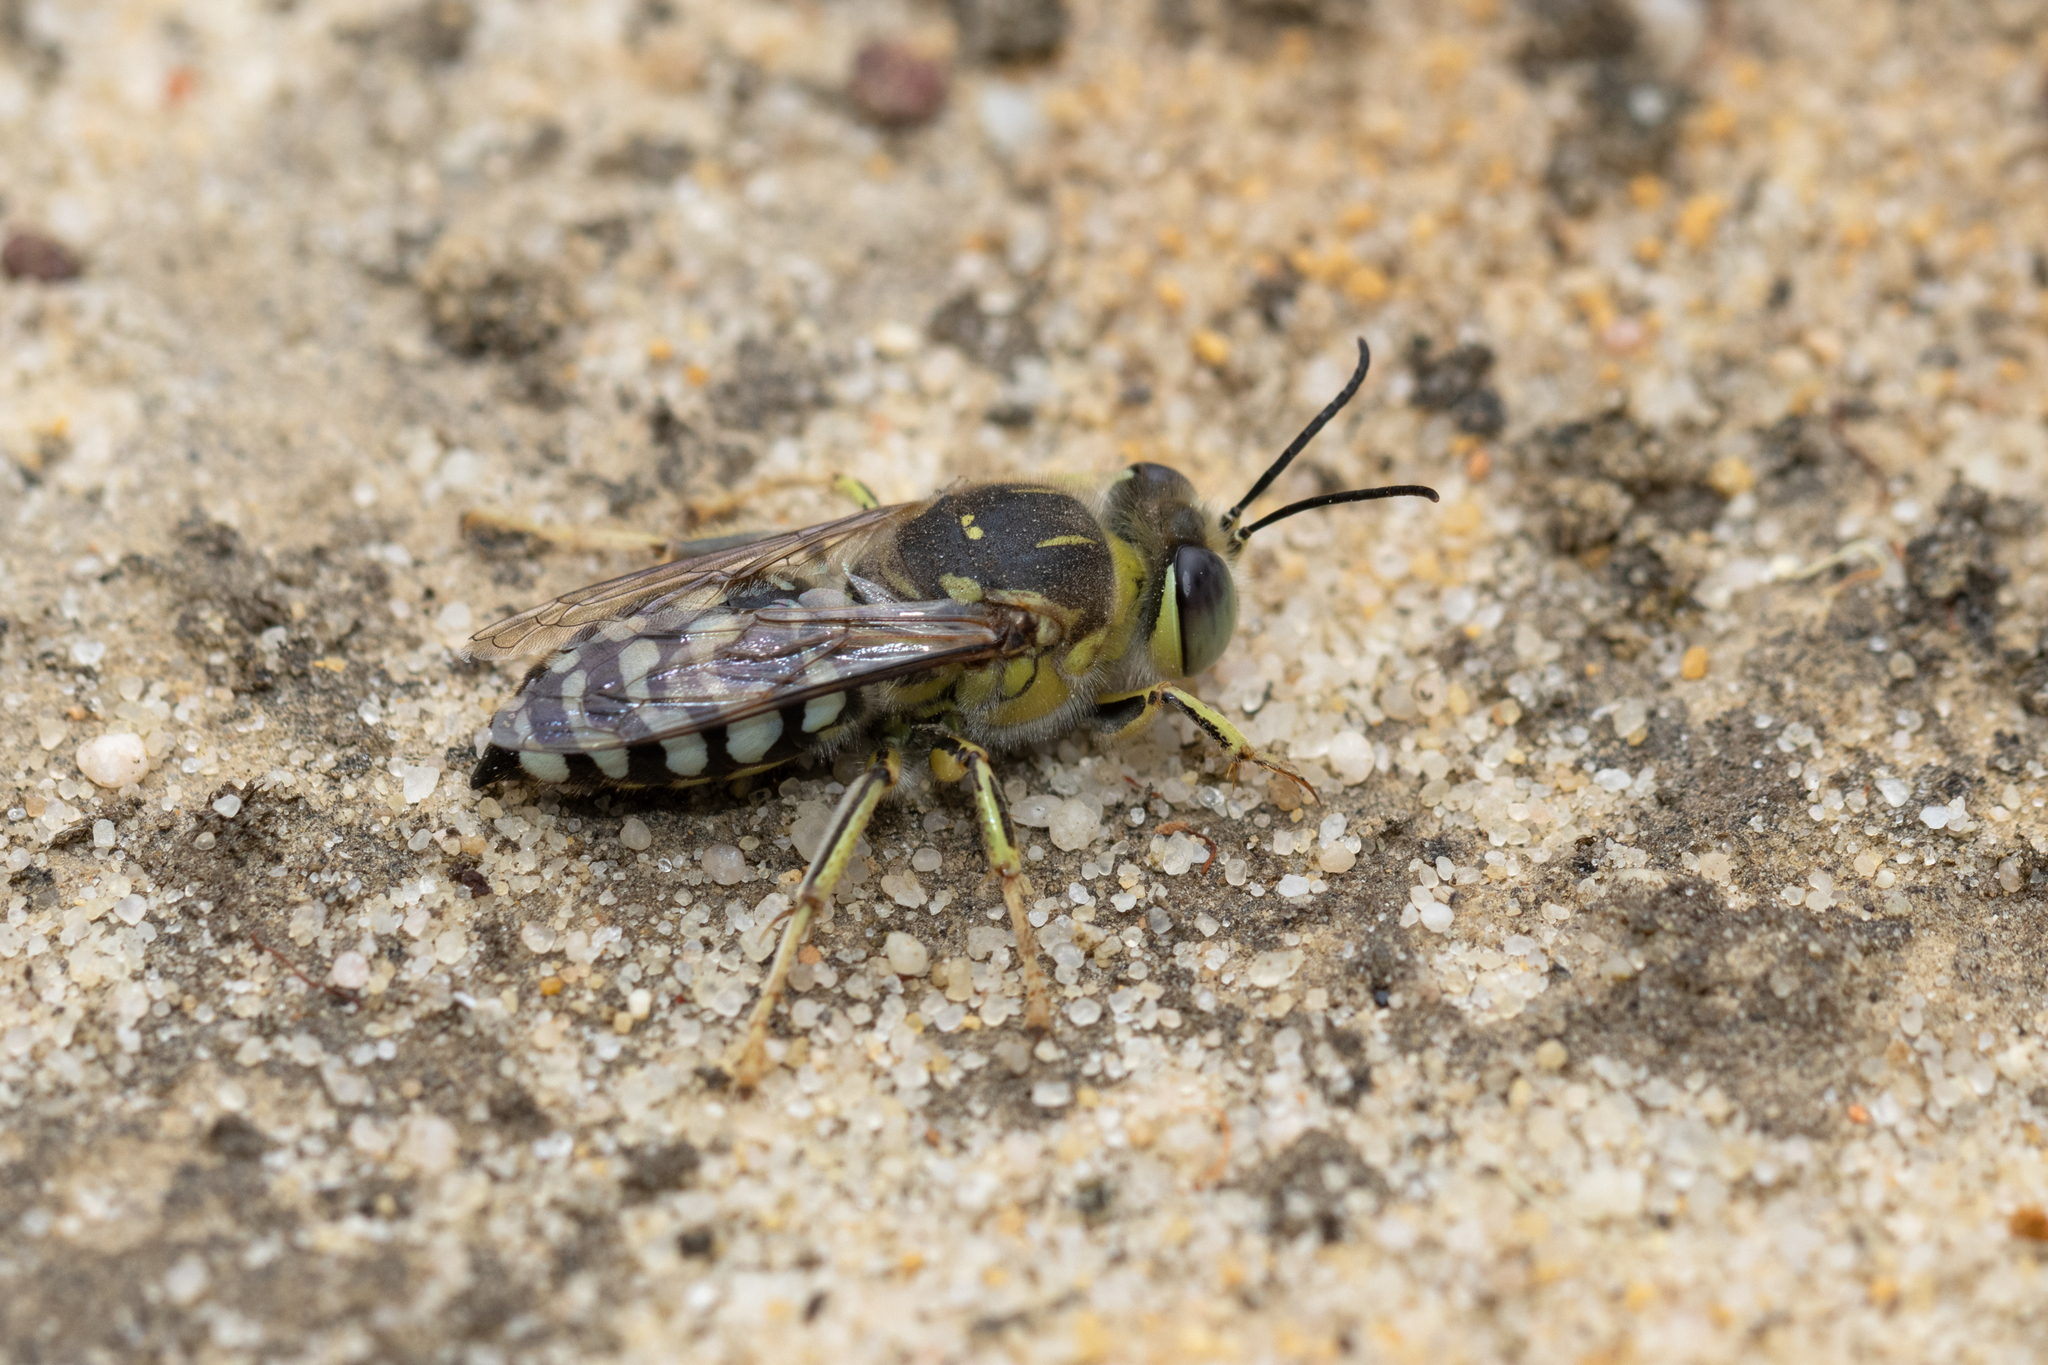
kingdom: Animalia
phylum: Arthropoda
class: Insecta
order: Hymenoptera
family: Crabronidae
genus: Bembix
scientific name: Bembix
